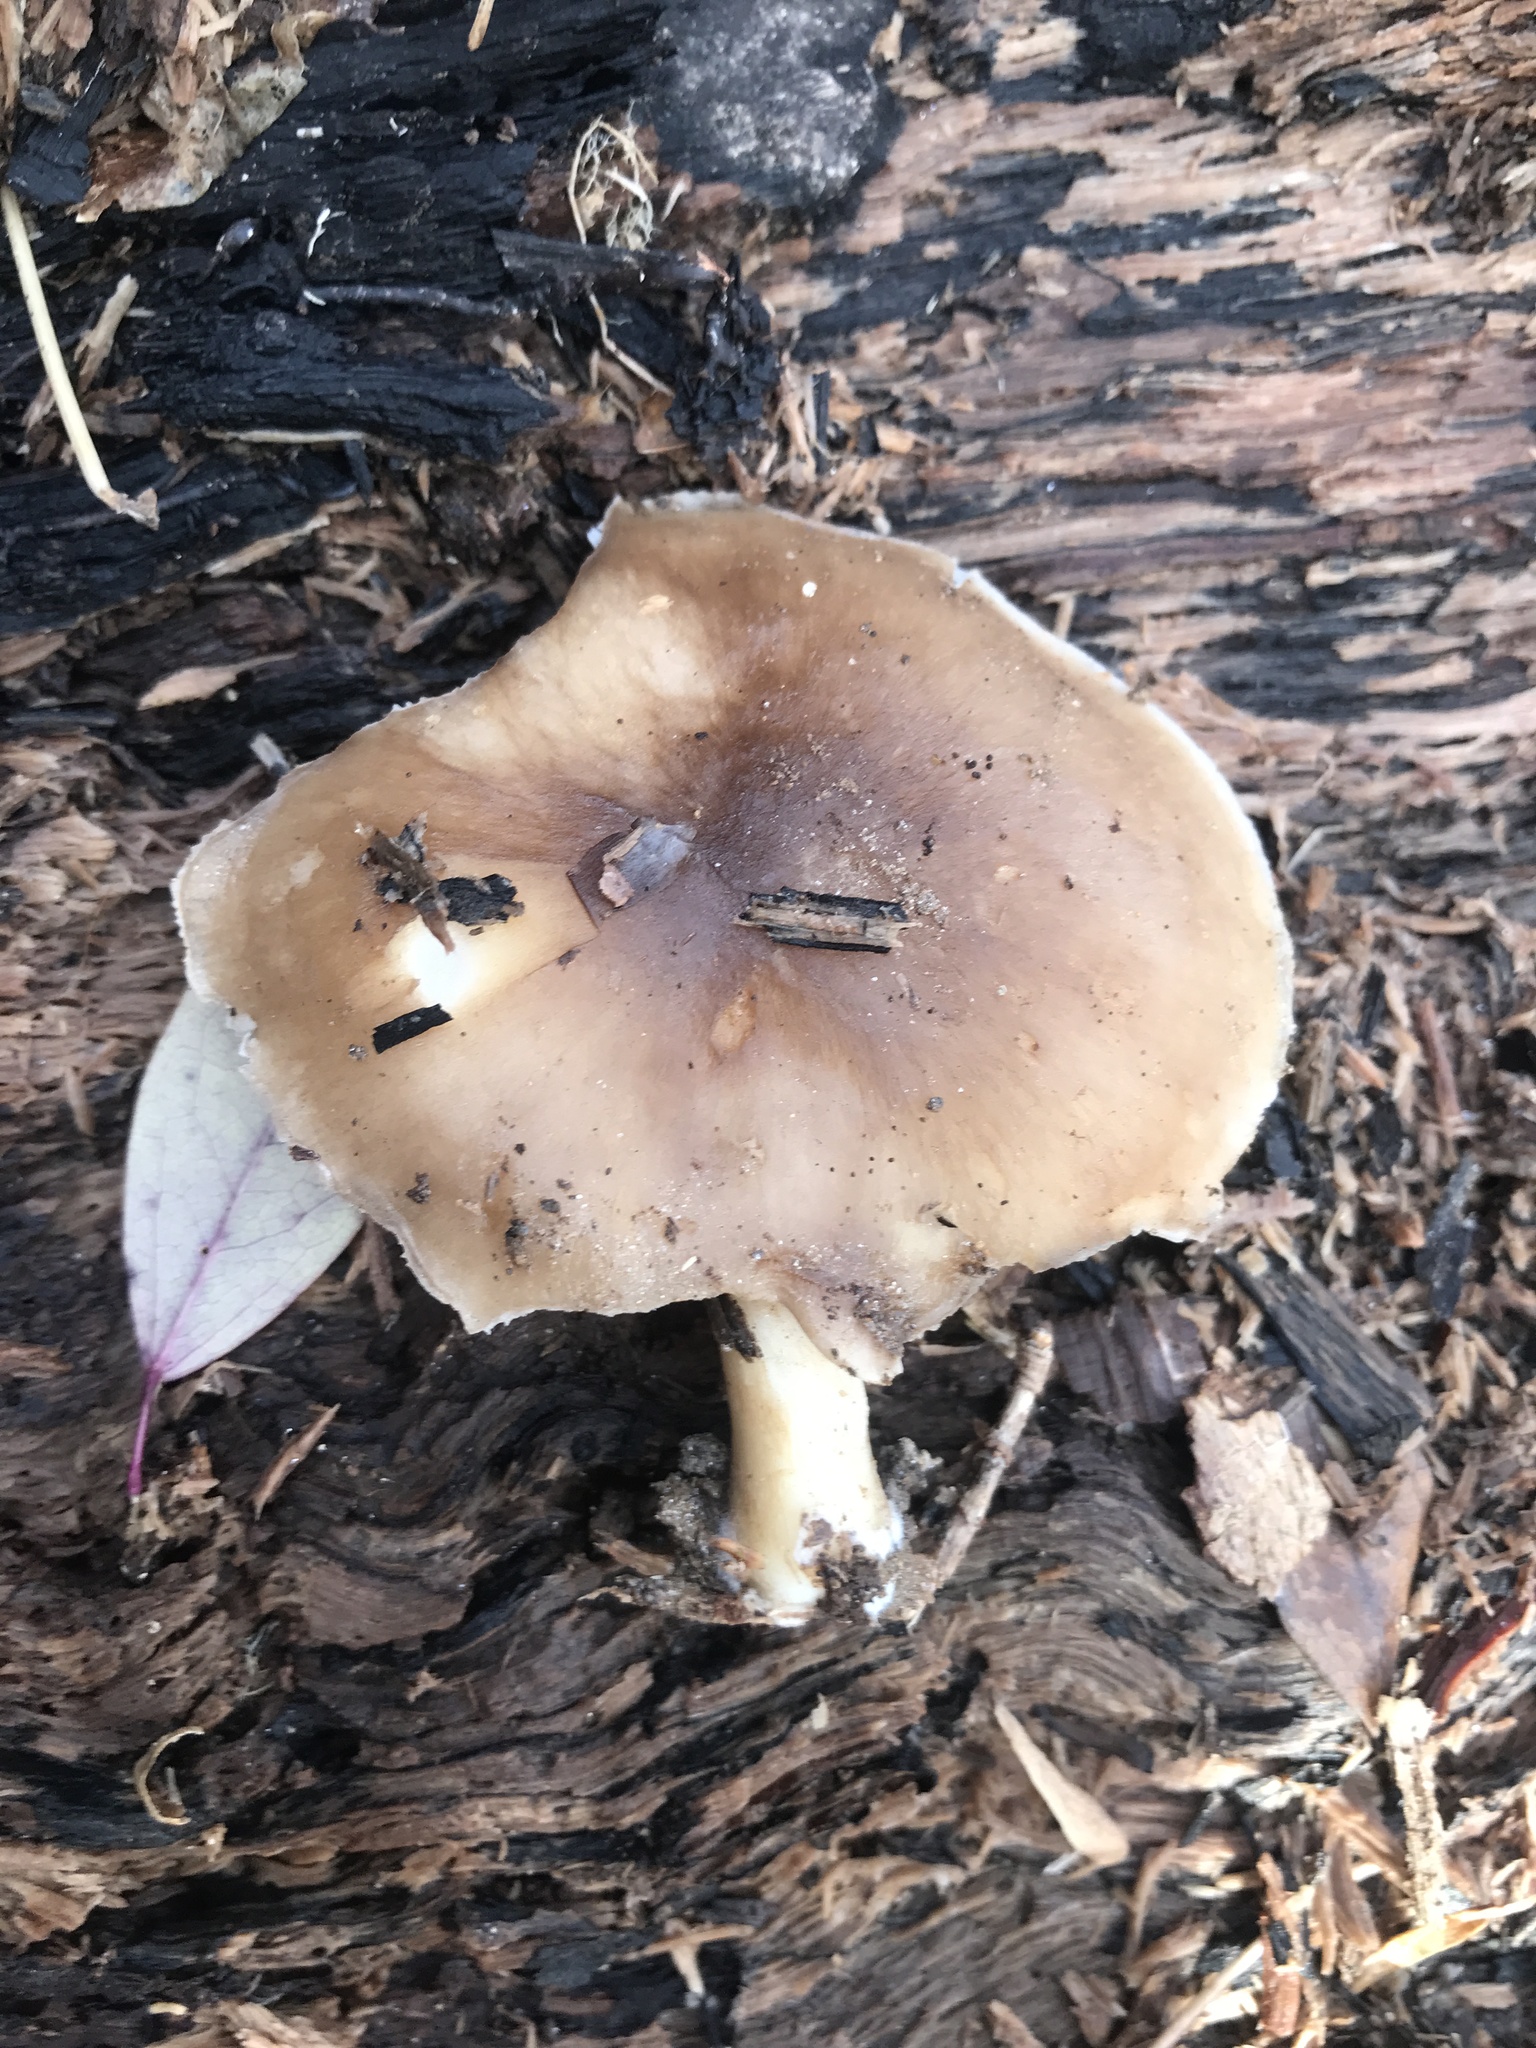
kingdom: Fungi
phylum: Basidiomycota
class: Agaricomycetes
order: Agaricales
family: Pluteaceae
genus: Pluteus
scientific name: Pluteus cervinus
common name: Deer shield
